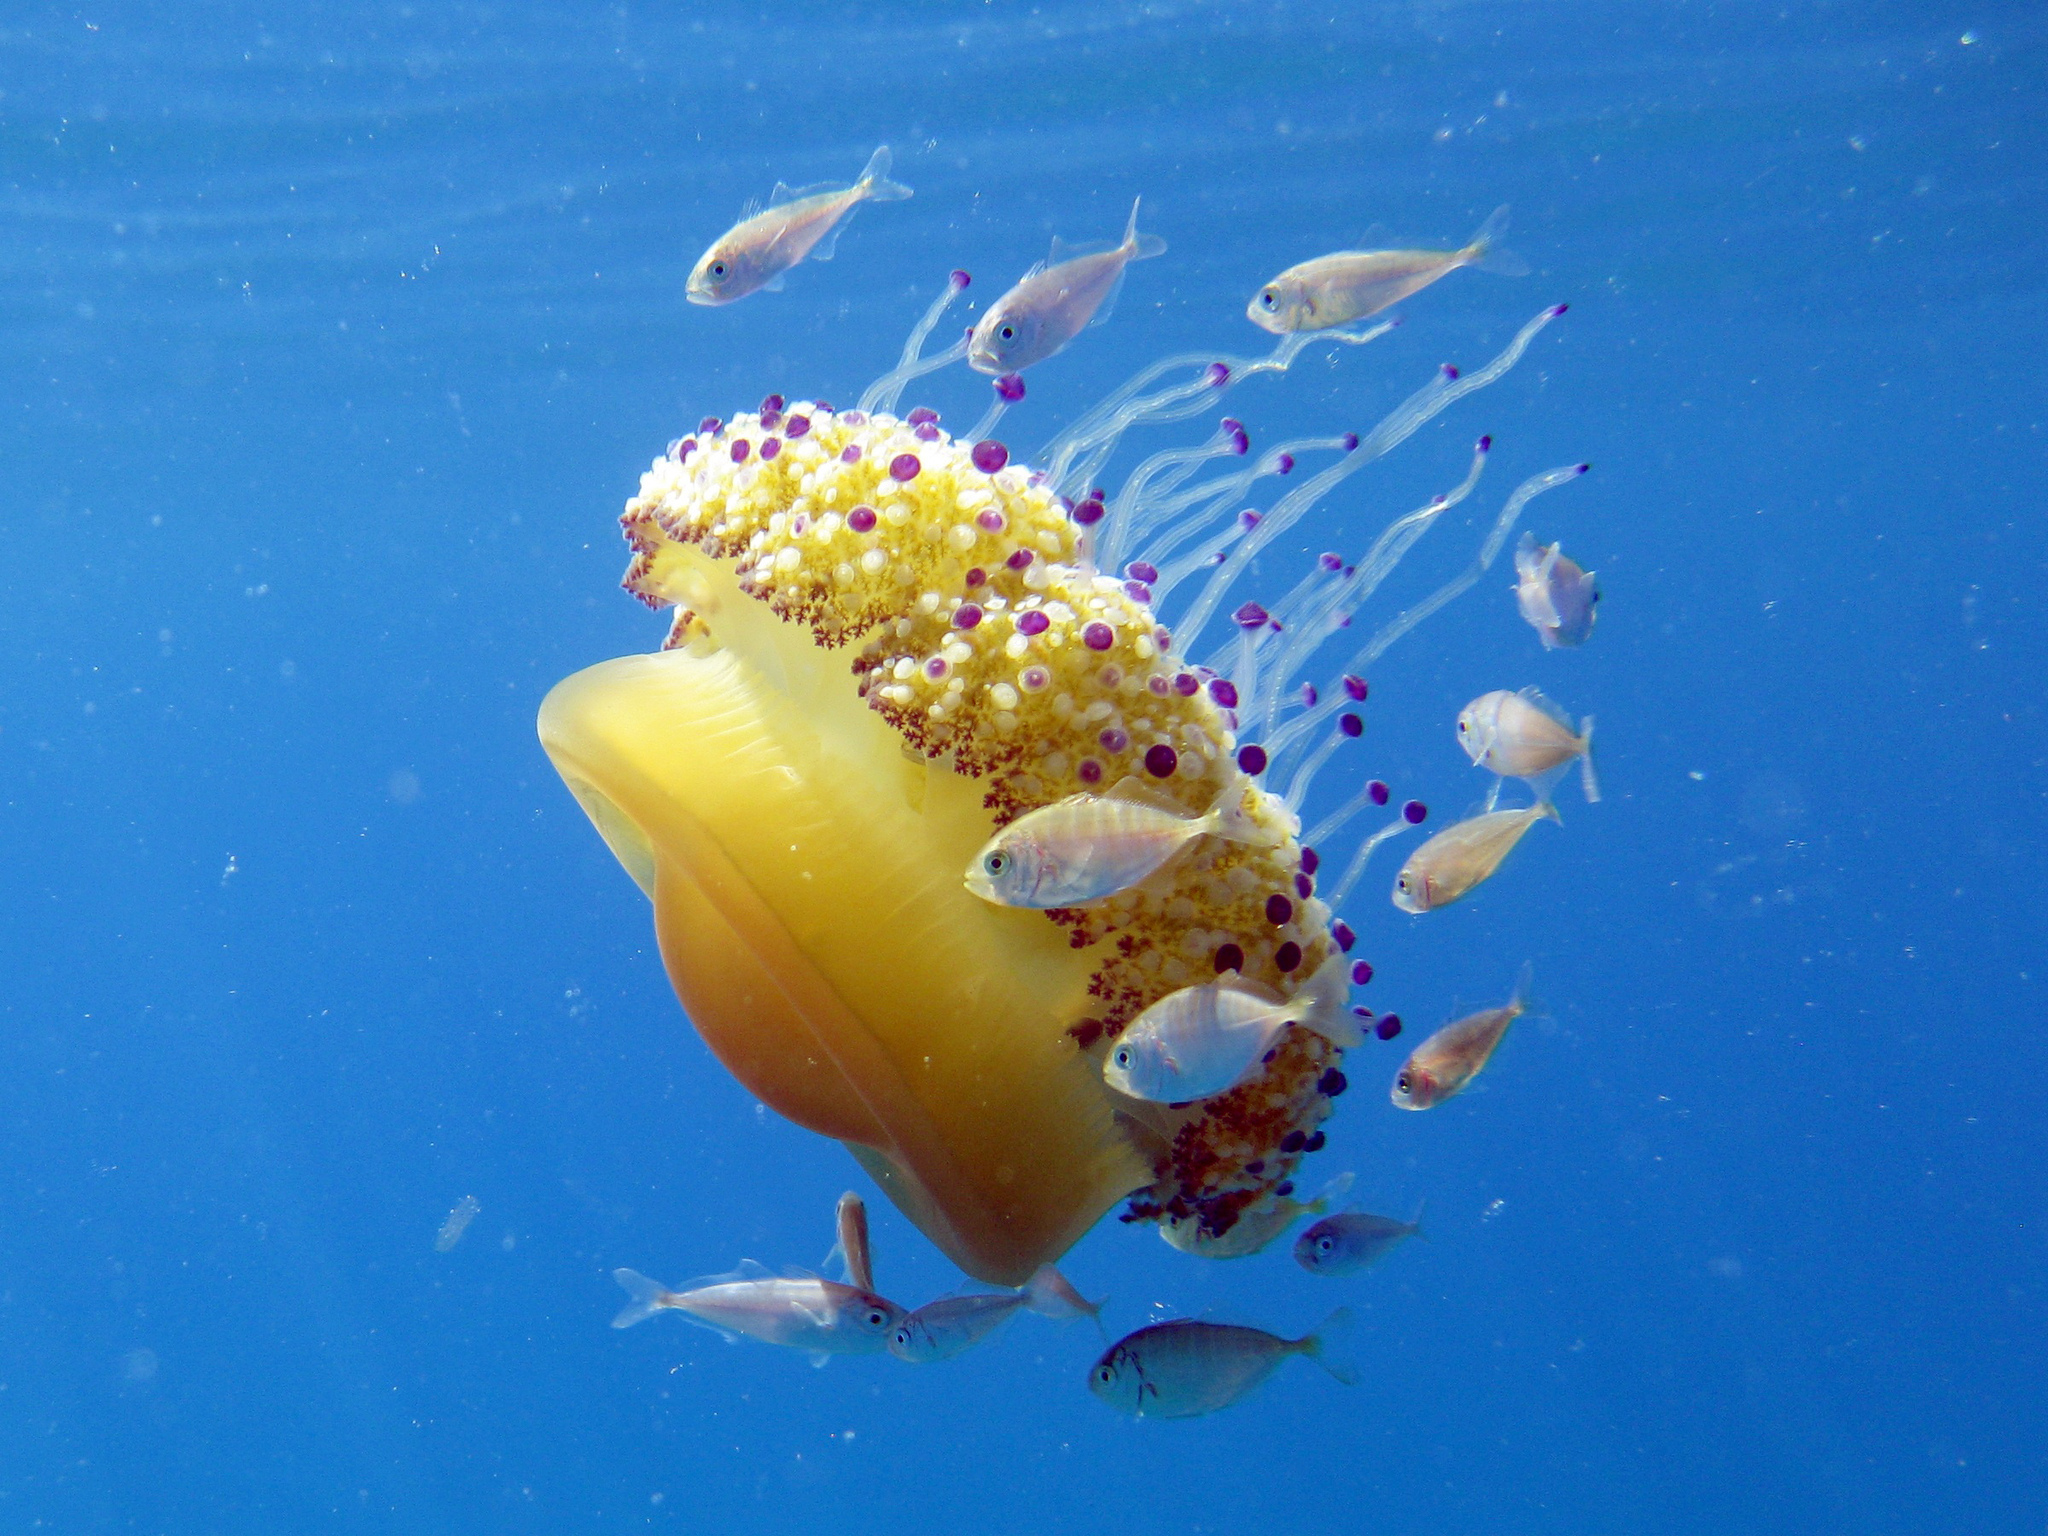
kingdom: Animalia
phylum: Cnidaria
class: Scyphozoa
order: Rhizostomeae
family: Cepheidae
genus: Cotylorhiza
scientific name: Cotylorhiza tuberculata
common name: Mediterranean jelly
